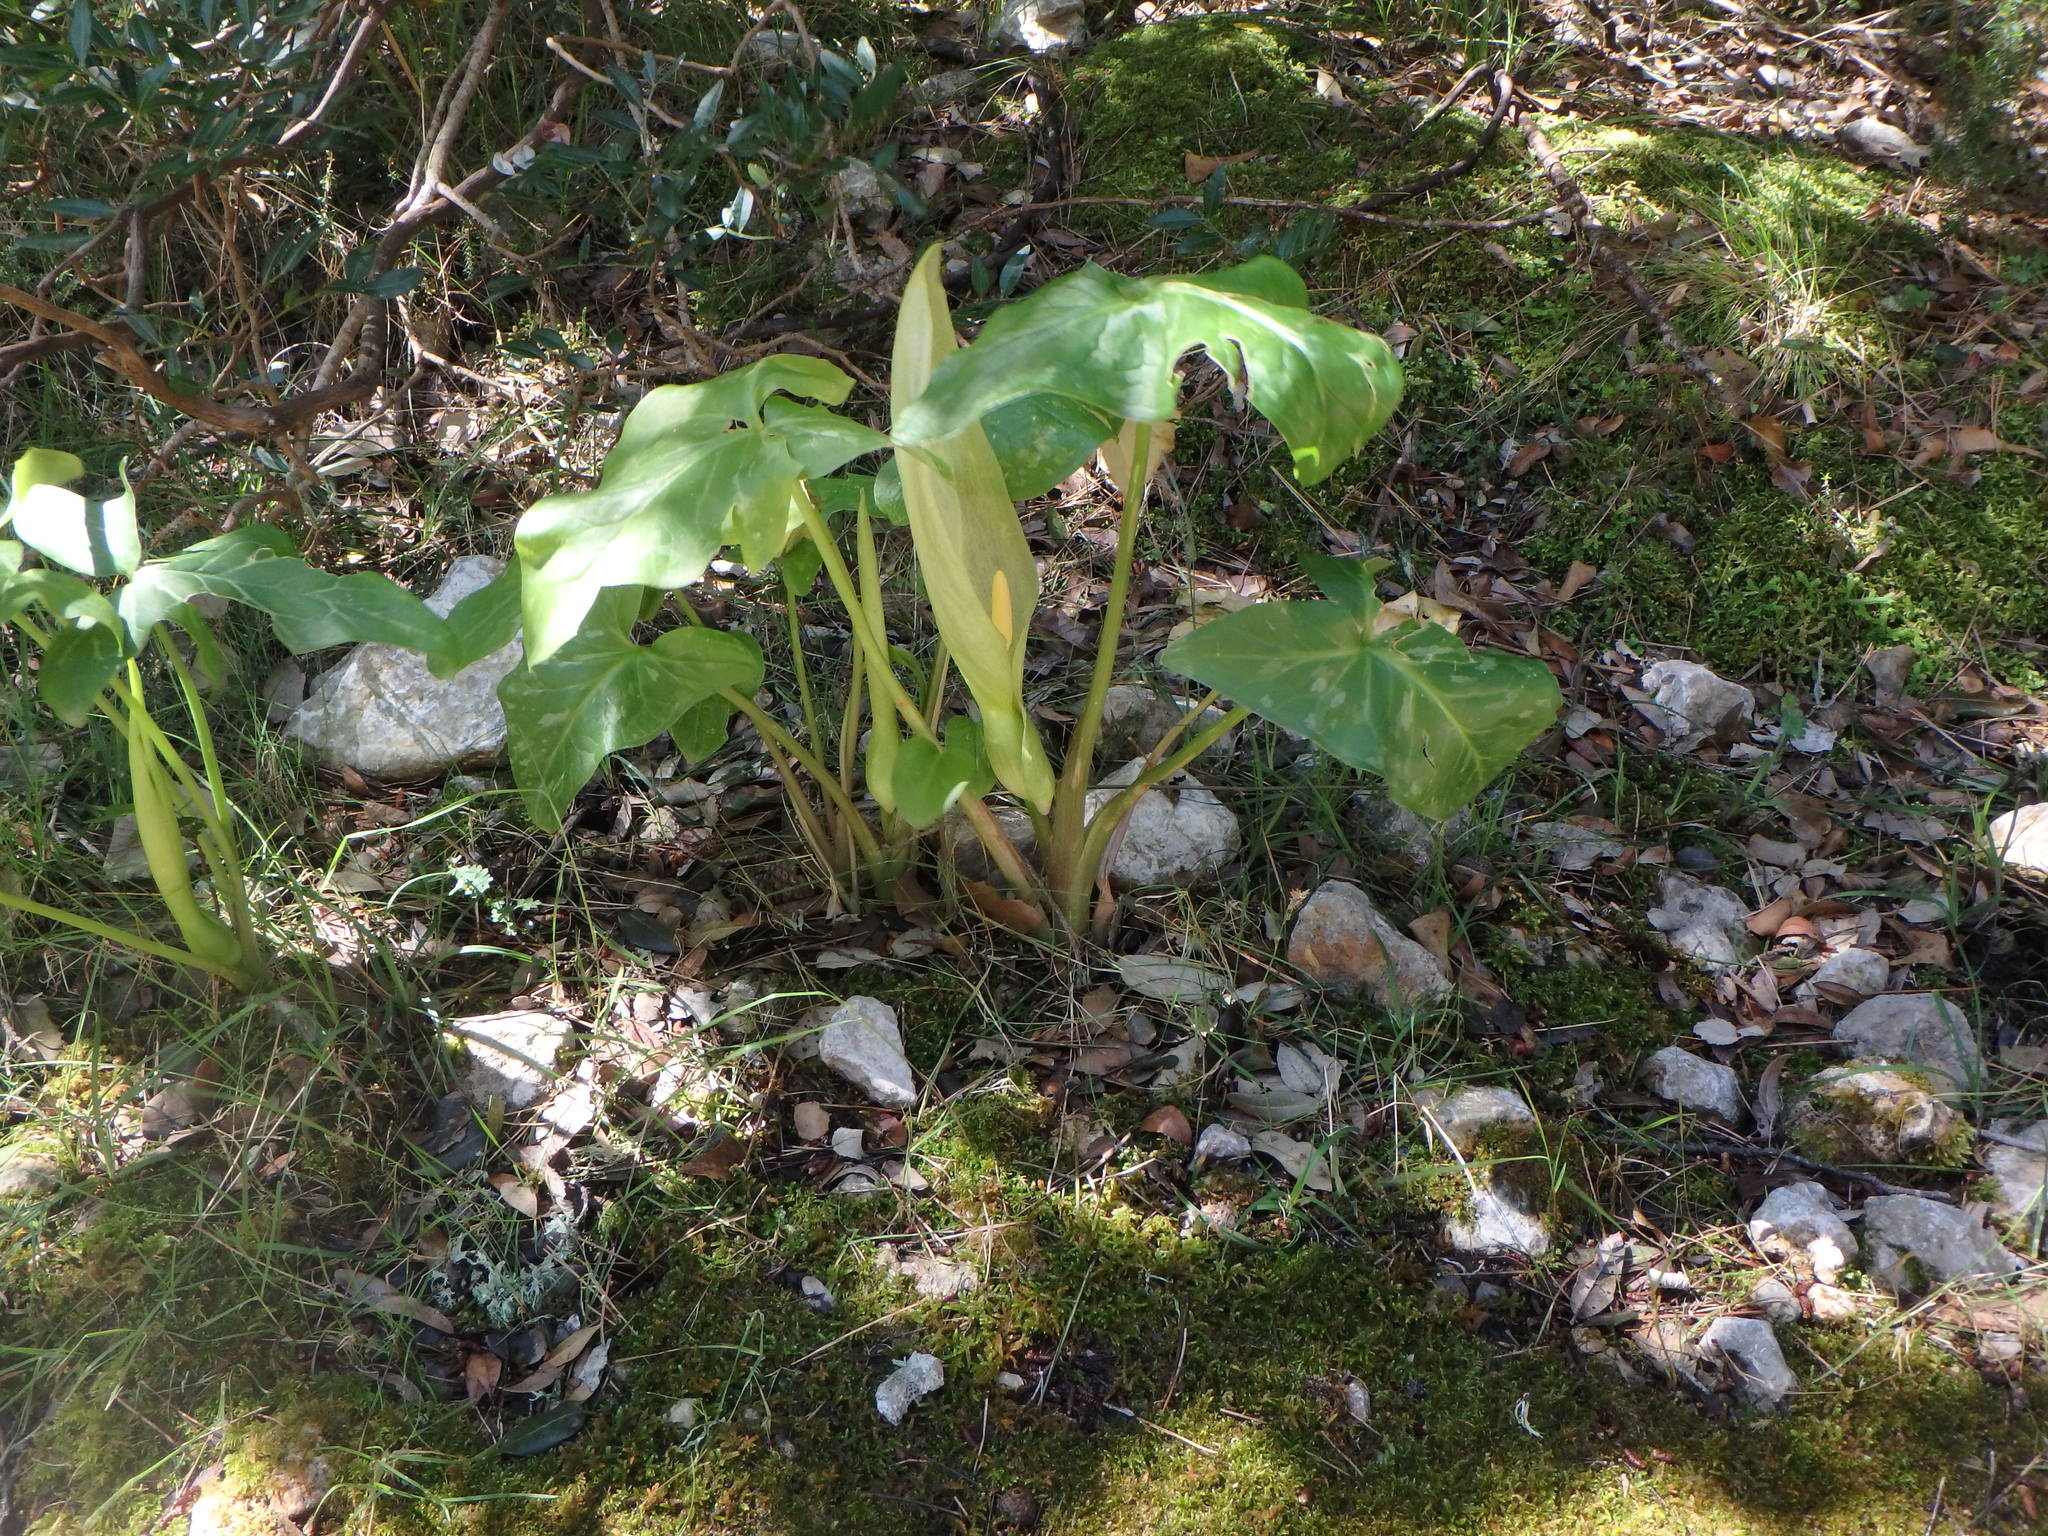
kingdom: Plantae
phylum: Tracheophyta
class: Liliopsida
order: Alismatales
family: Araceae
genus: Arum
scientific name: Arum italicum
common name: Italian lords-and-ladies
